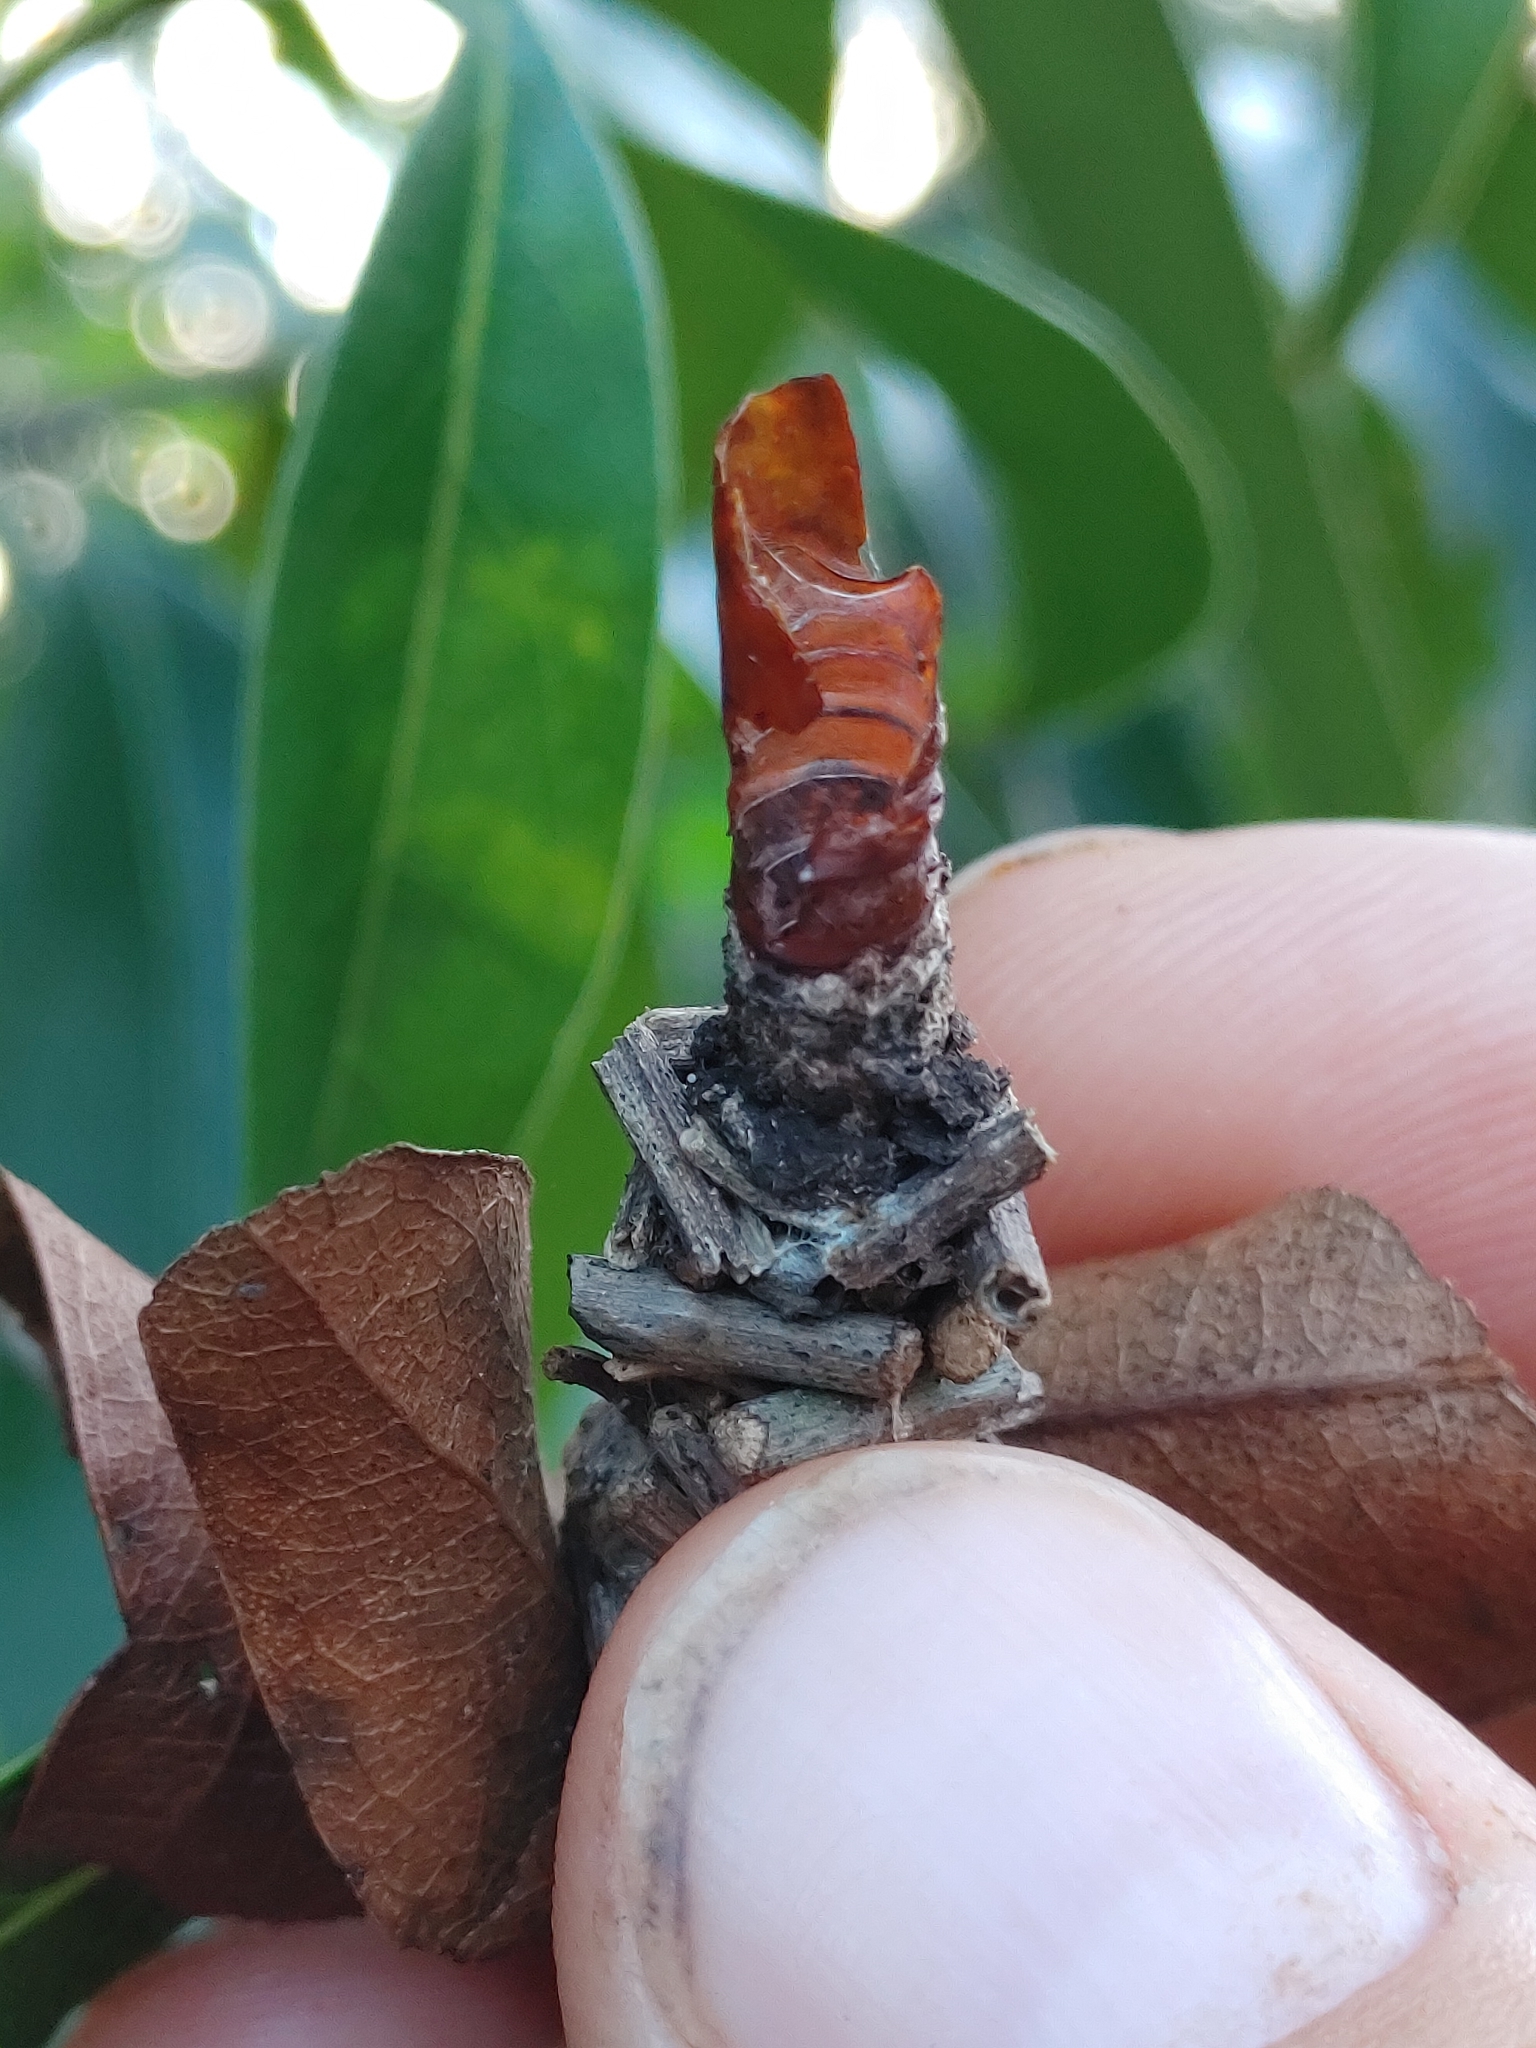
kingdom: Animalia
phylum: Arthropoda
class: Insecta
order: Lepidoptera
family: Psychidae
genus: Oiketicus
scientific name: Oiketicus
